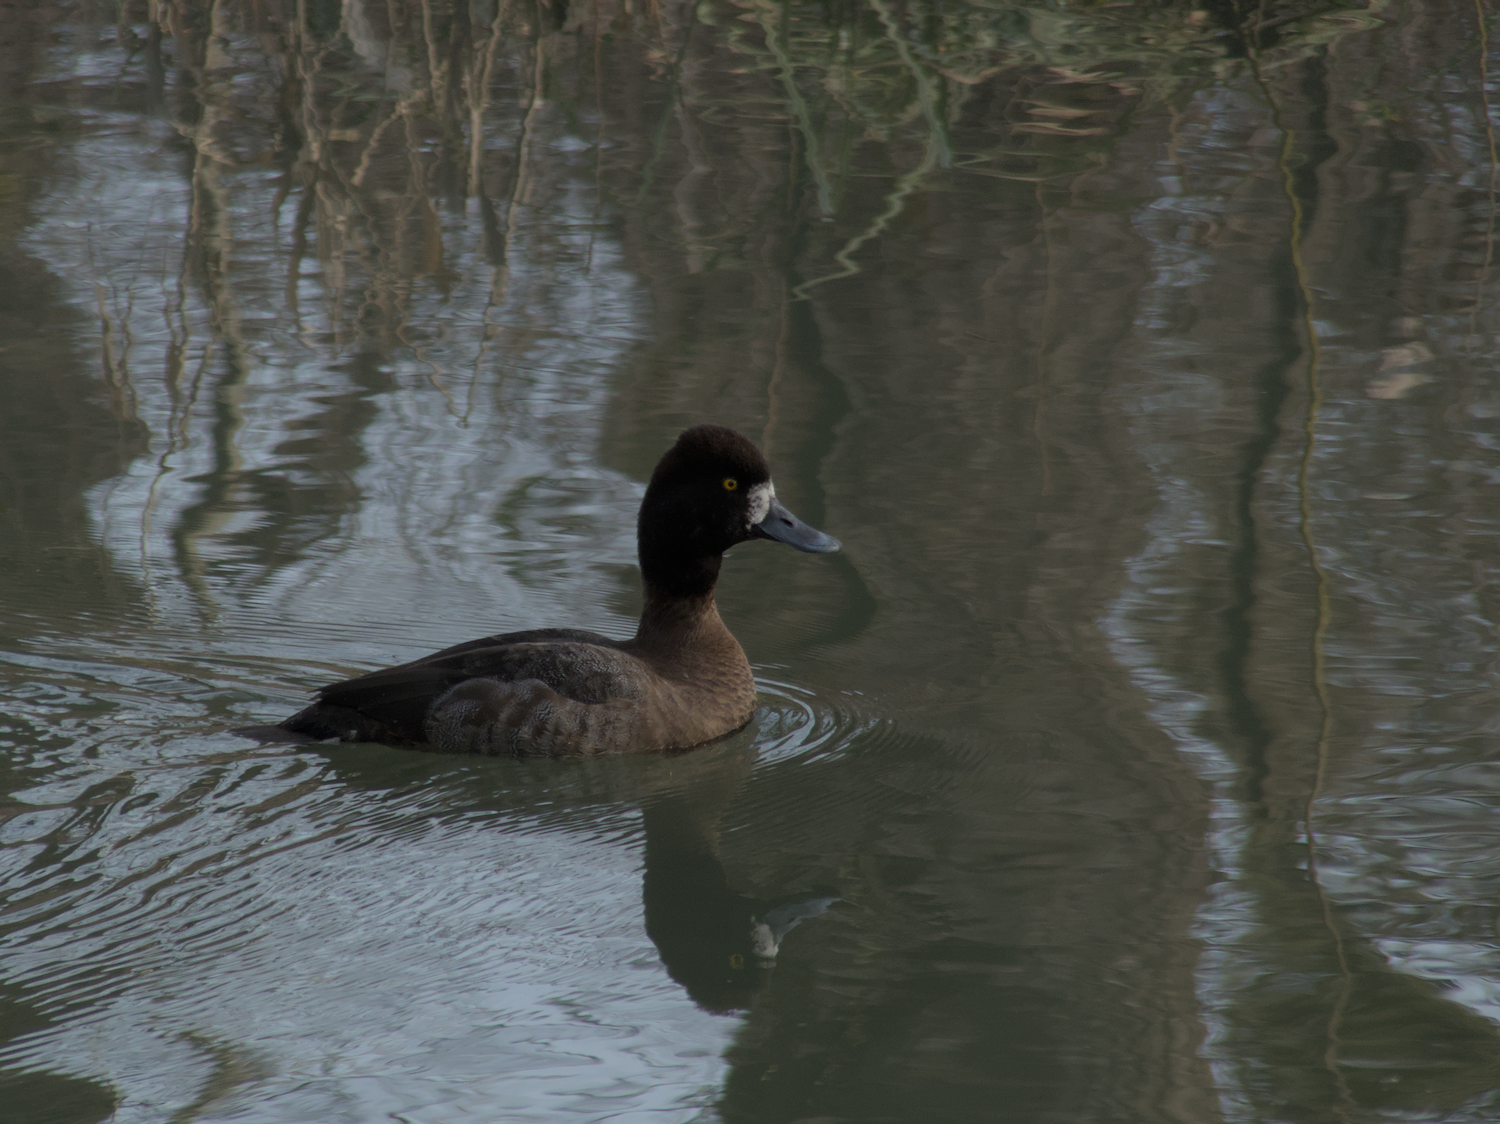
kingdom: Animalia
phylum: Chordata
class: Aves
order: Anseriformes
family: Anatidae
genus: Aythya
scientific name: Aythya affinis
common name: Lesser scaup
